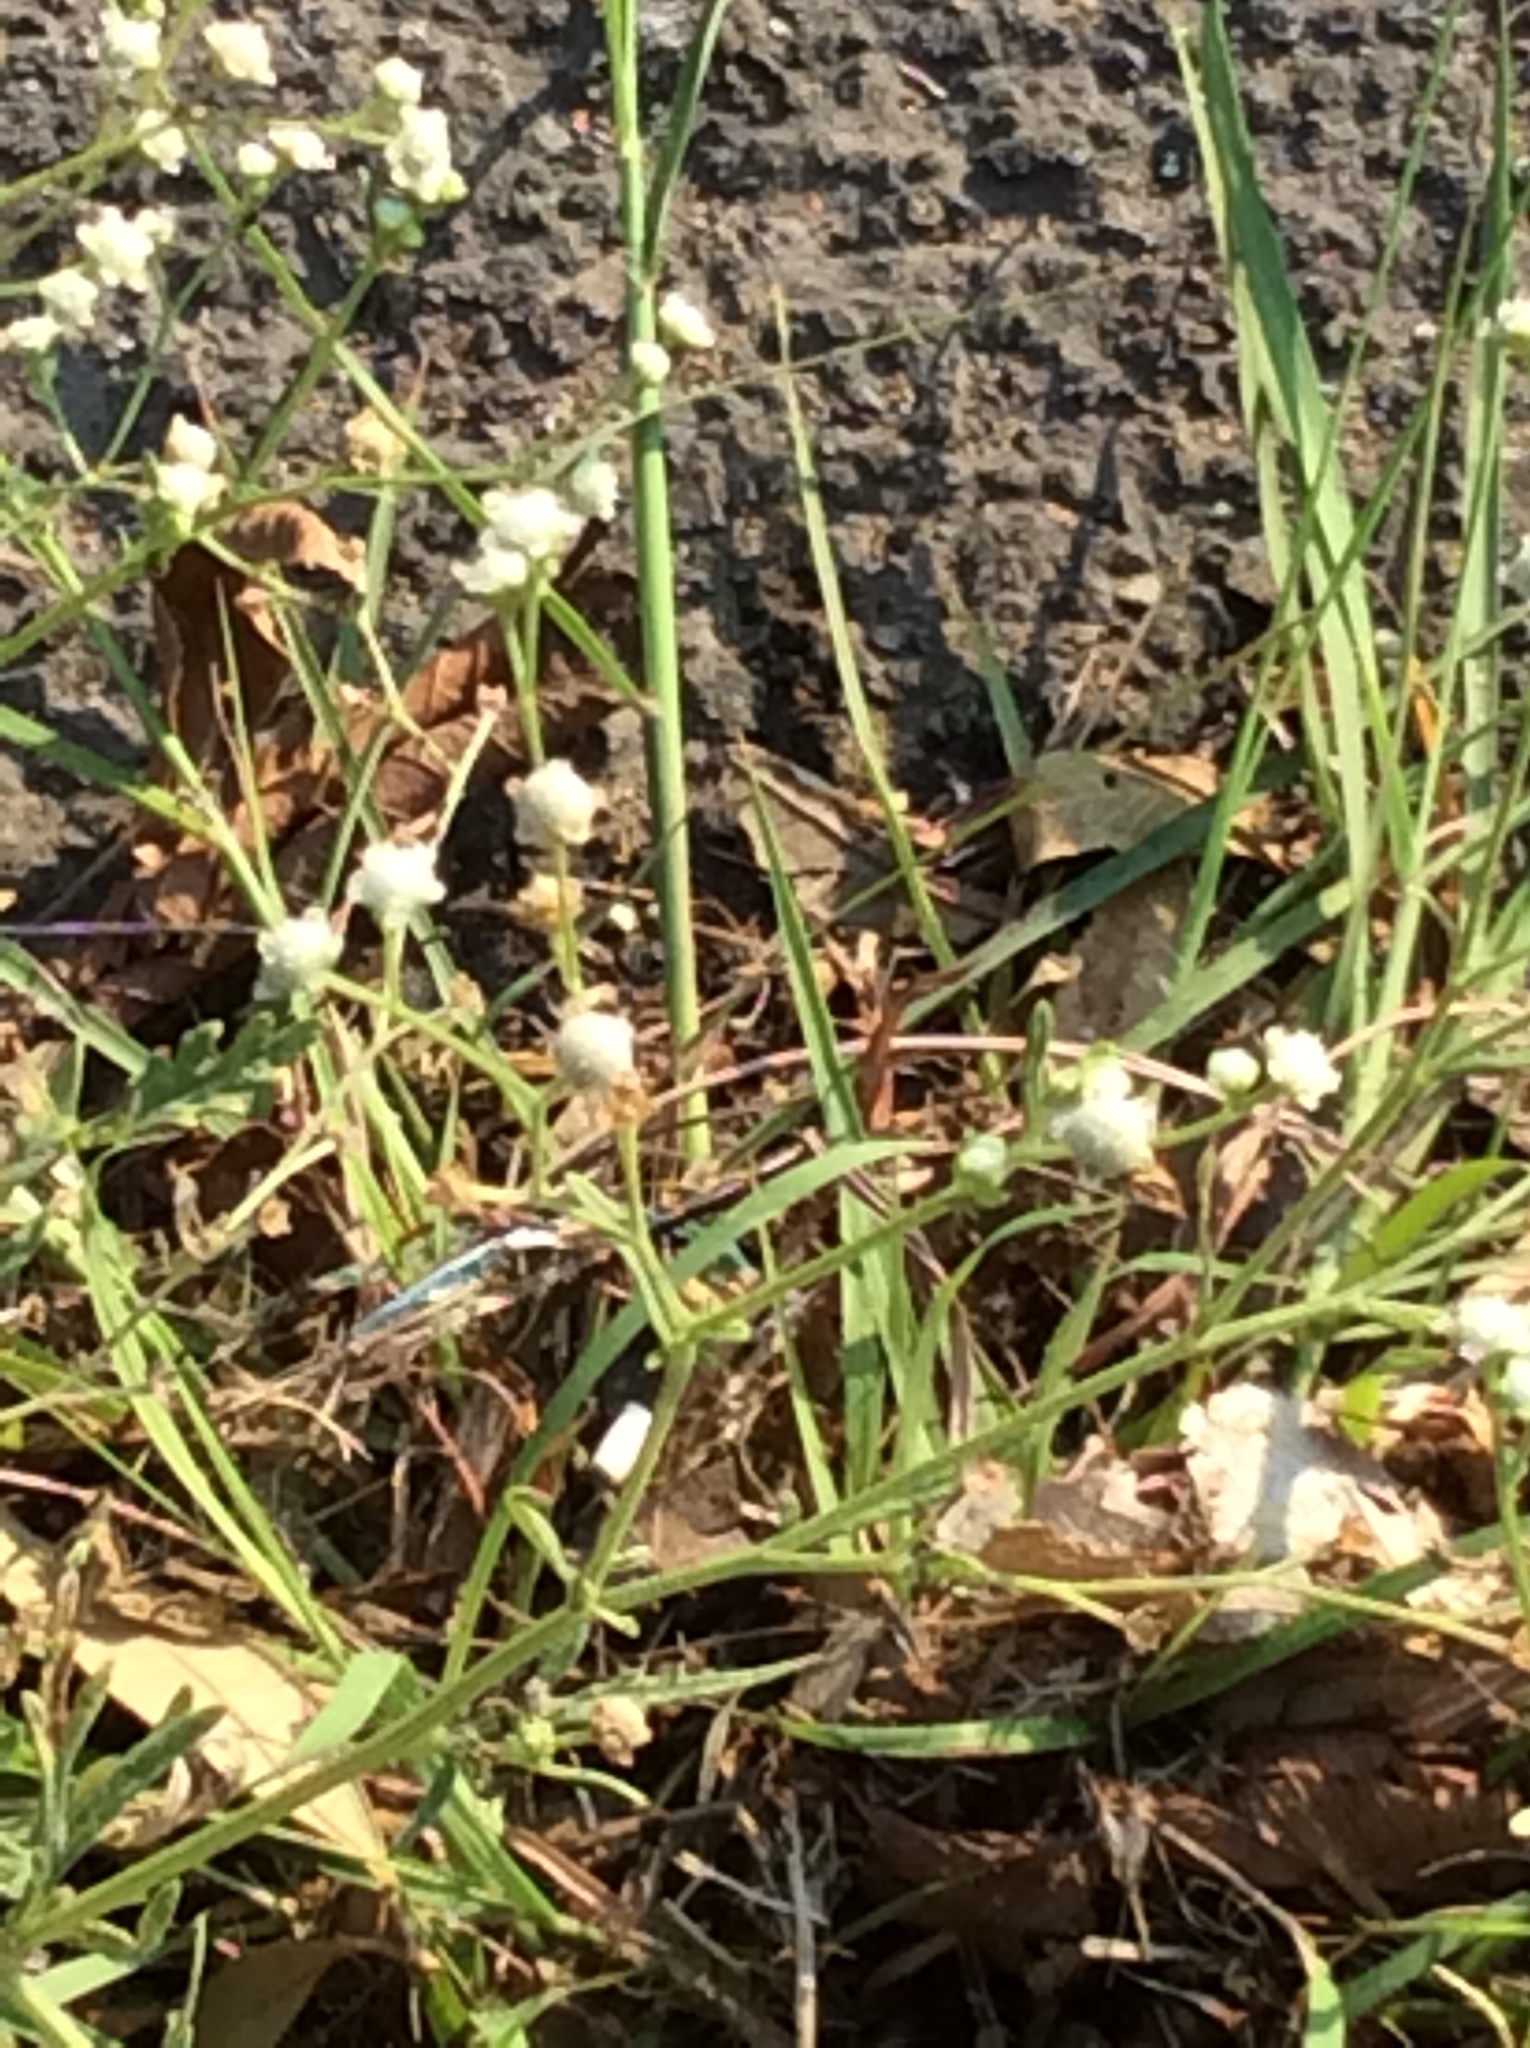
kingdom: Plantae
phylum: Tracheophyta
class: Magnoliopsida
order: Asterales
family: Asteraceae
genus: Parthenium
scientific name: Parthenium hysterophorus
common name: Santa maria feverfew
